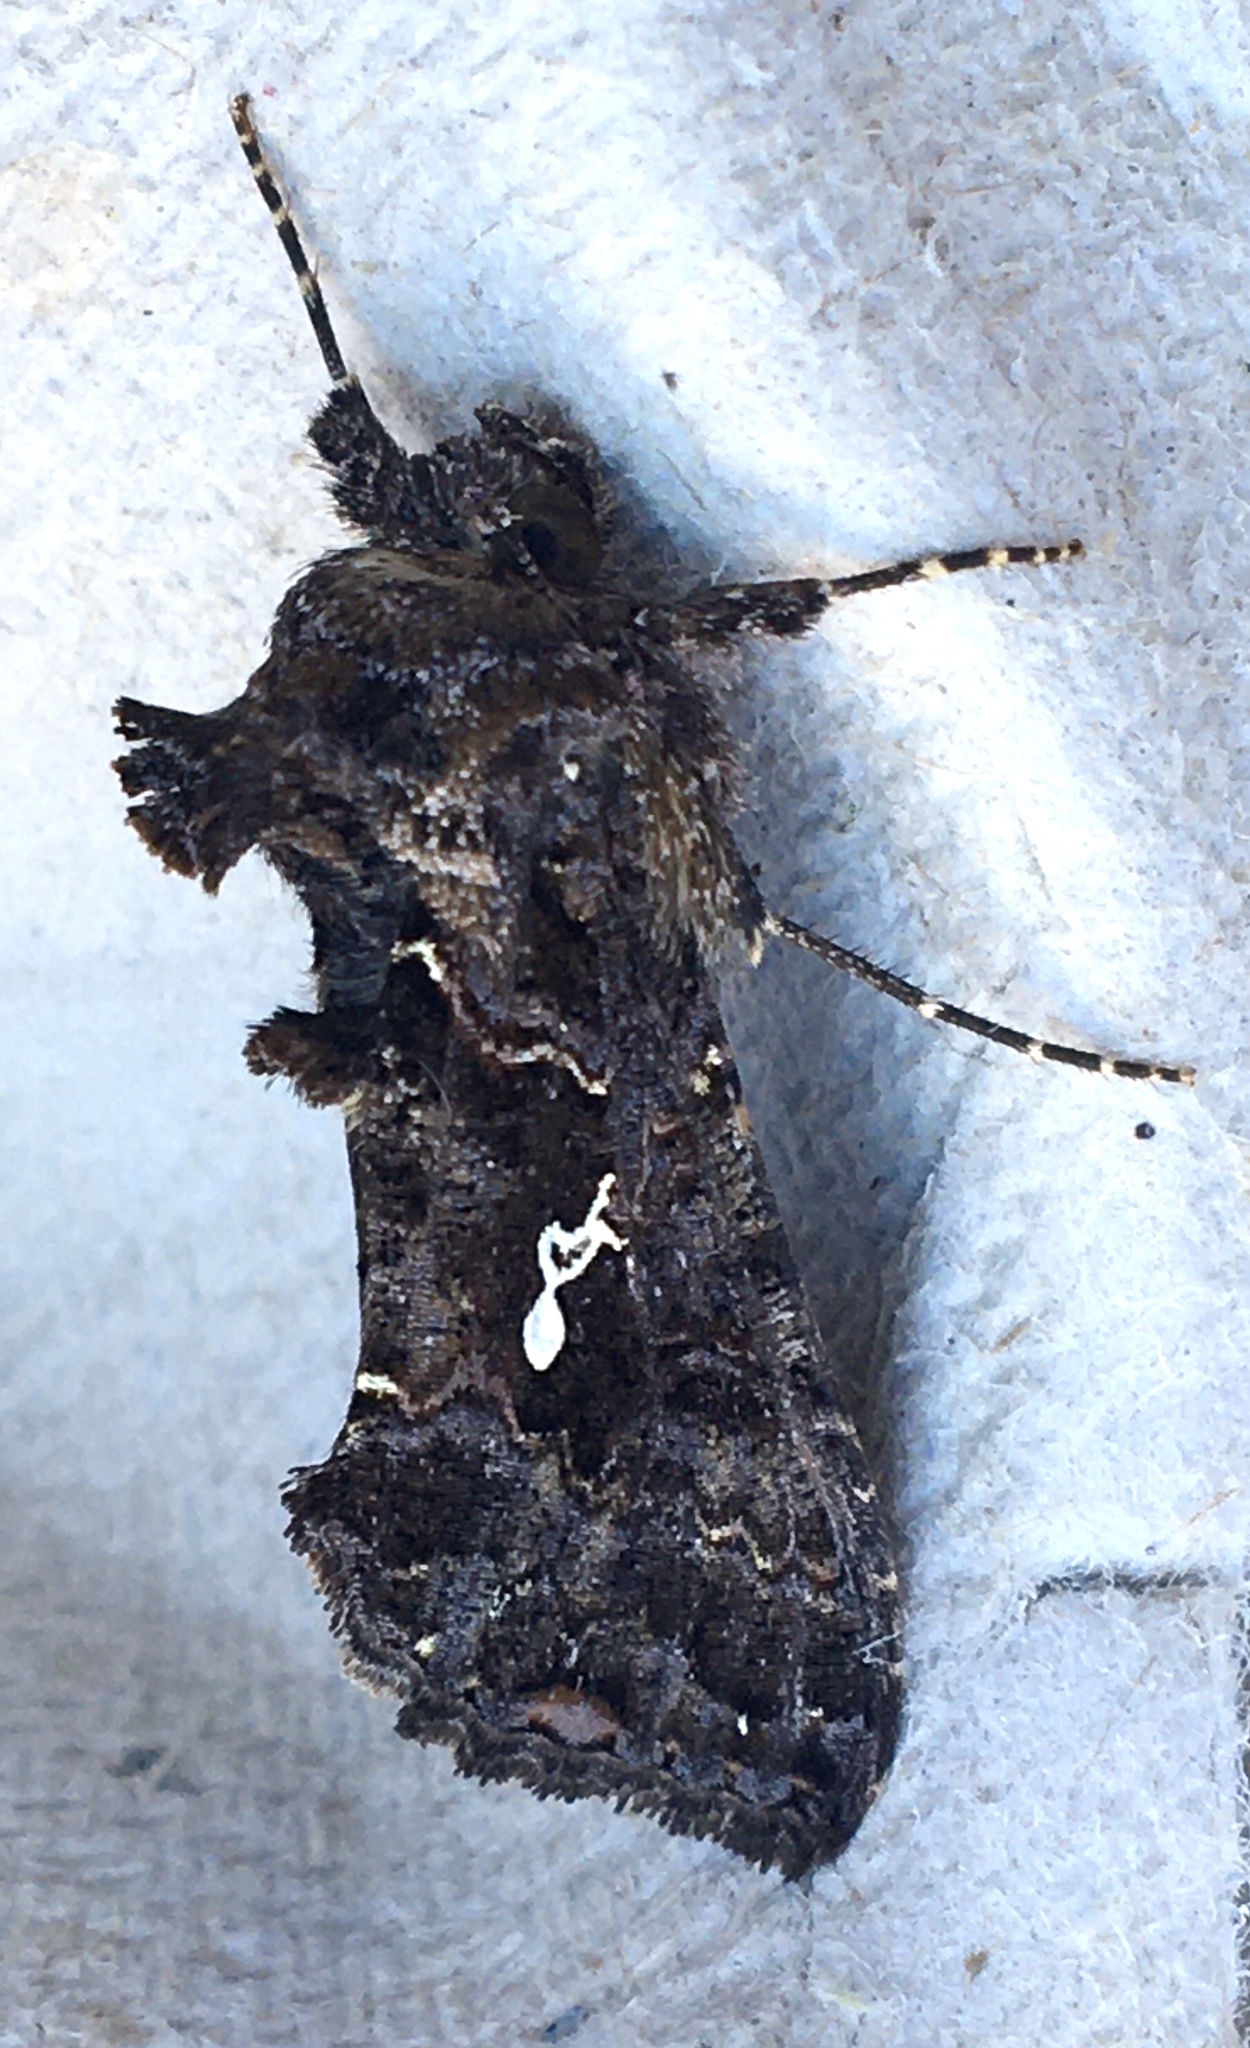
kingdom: Animalia
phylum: Arthropoda
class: Insecta
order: Lepidoptera
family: Noctuidae
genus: Ctenoplusia
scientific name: Ctenoplusia limbirena
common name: Scar bank gem
